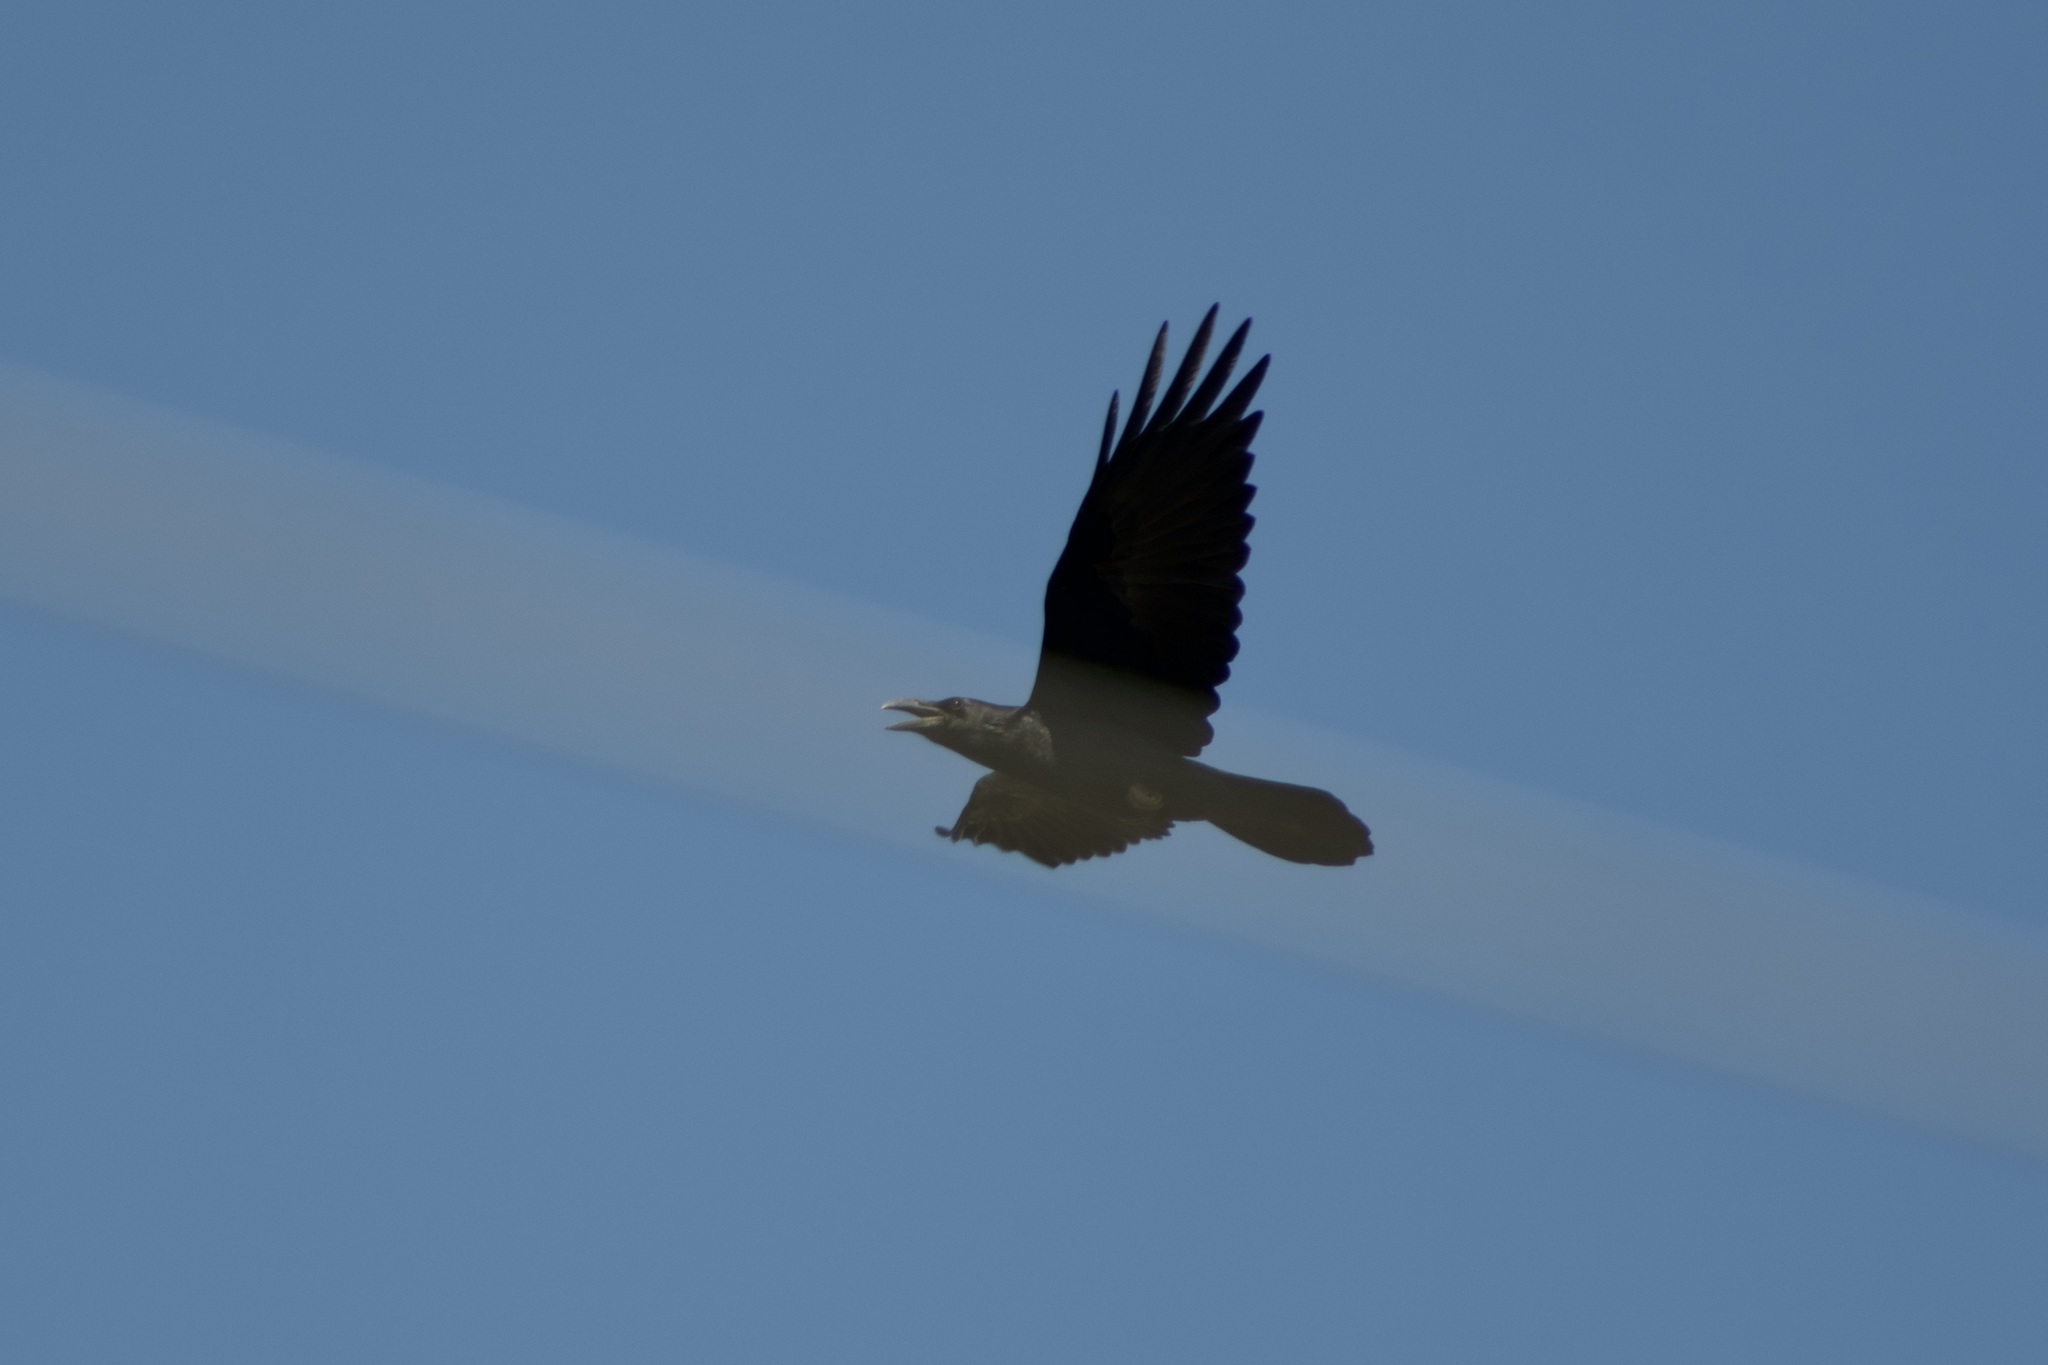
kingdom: Animalia
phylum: Chordata
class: Aves
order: Passeriformes
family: Corvidae
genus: Corvus
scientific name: Corvus corax
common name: Common raven
